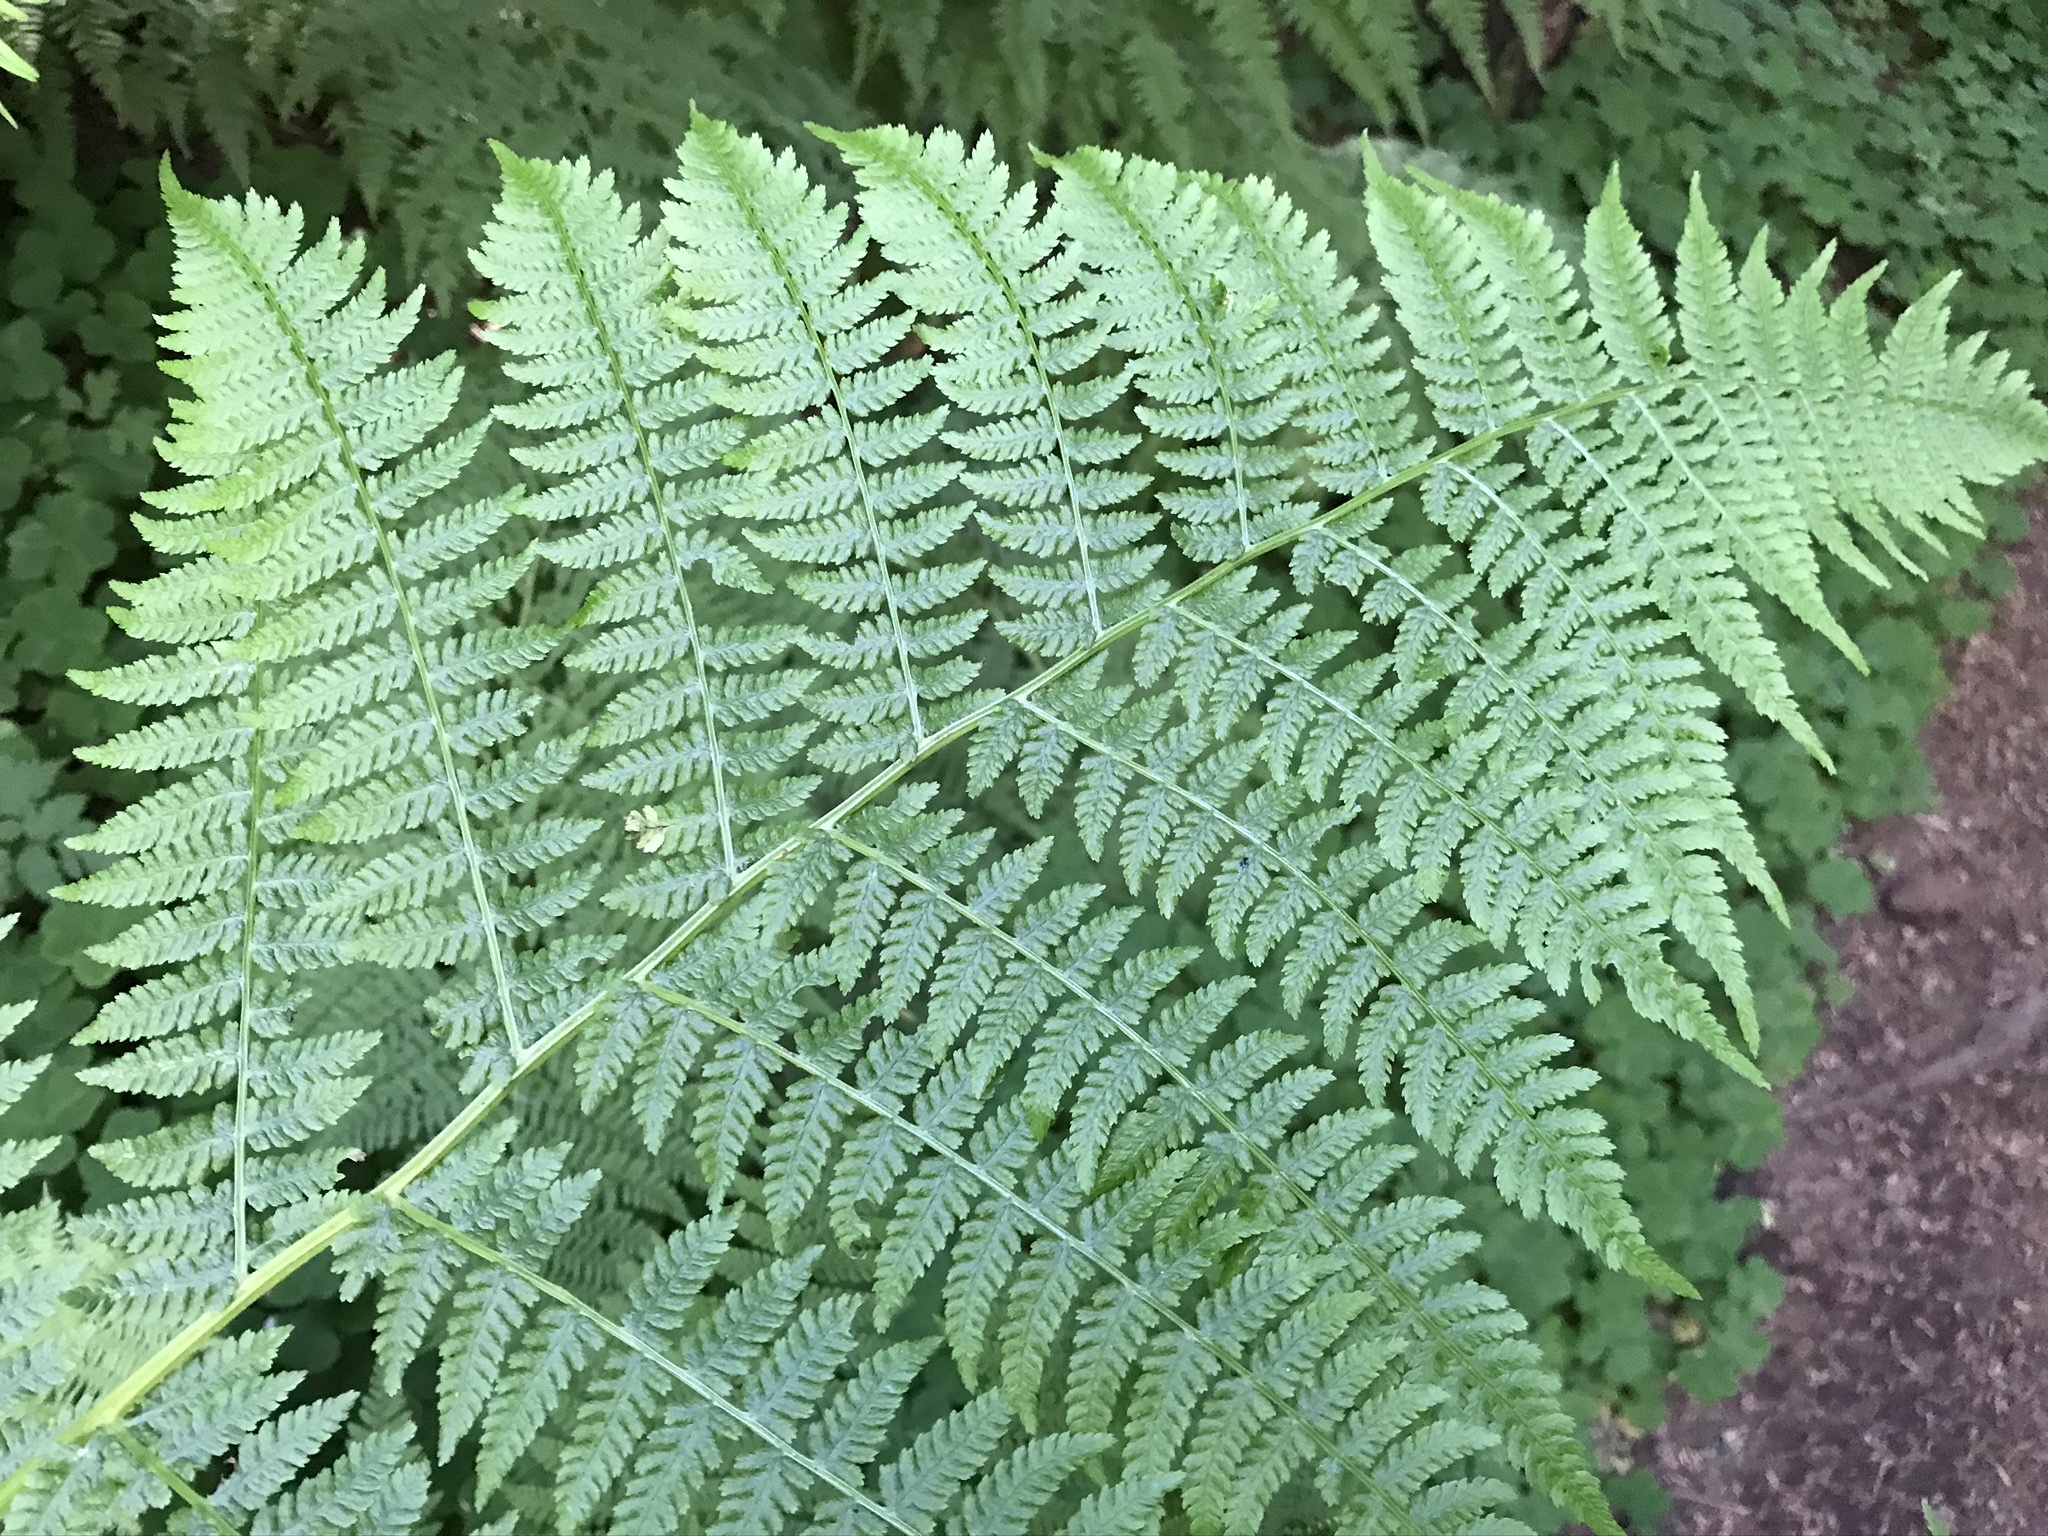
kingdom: Plantae
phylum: Tracheophyta
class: Polypodiopsida
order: Polypodiales
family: Athyriaceae
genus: Athyrium
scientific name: Athyrium filix-femina
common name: Lady fern
